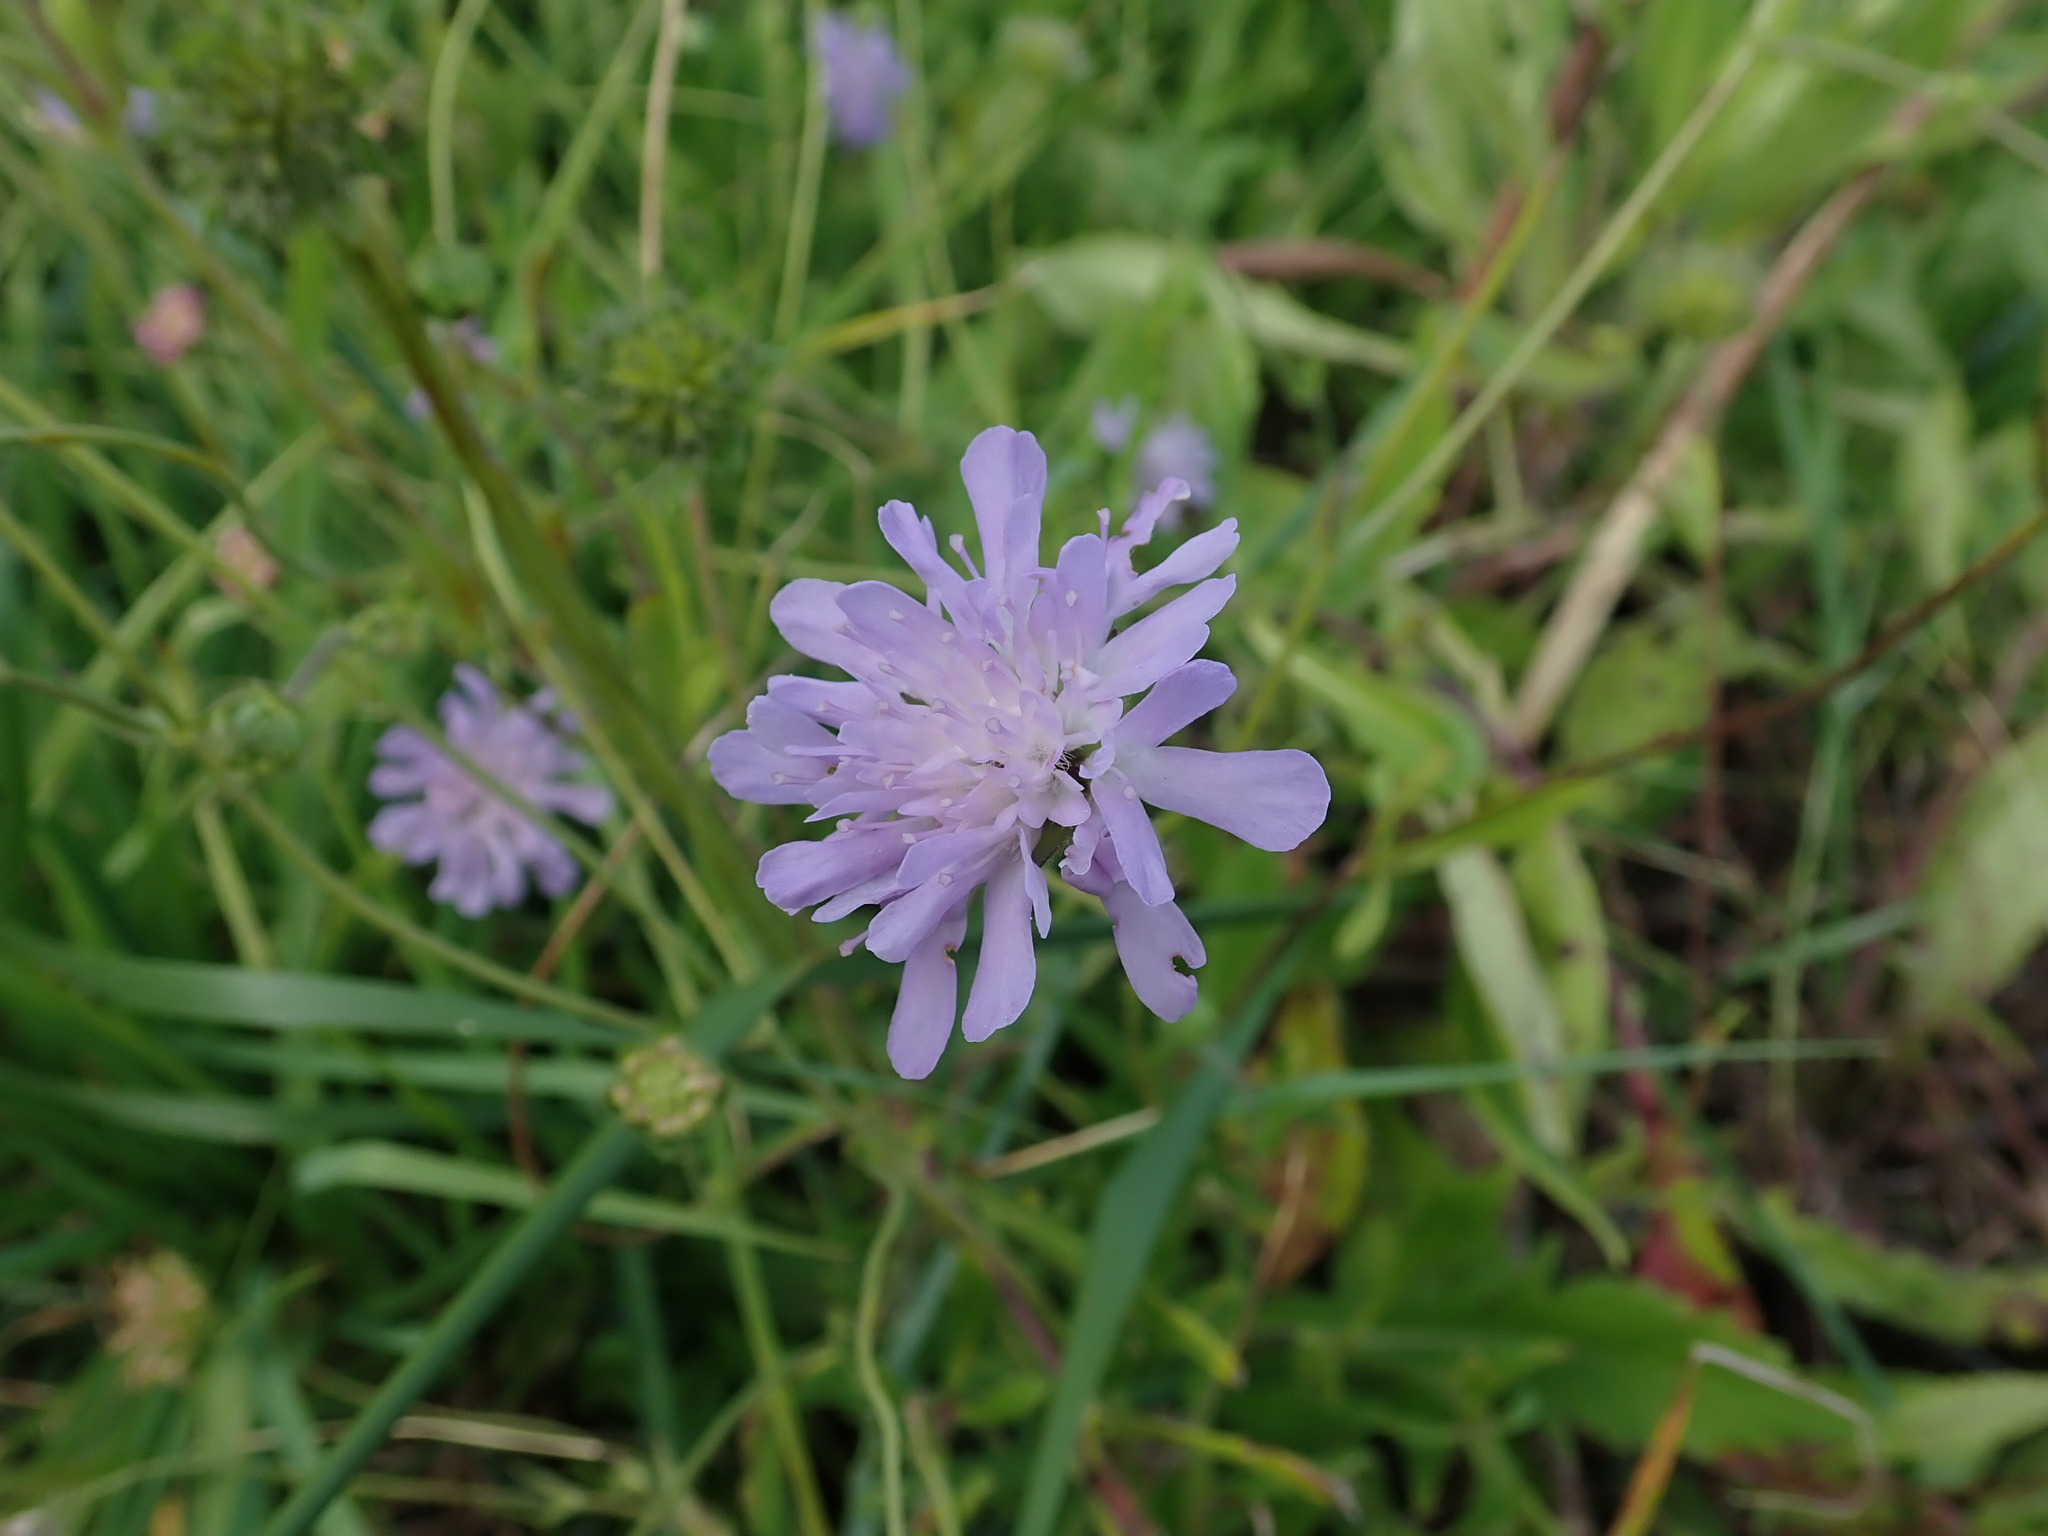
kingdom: Plantae
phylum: Tracheophyta
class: Magnoliopsida
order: Dipsacales
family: Caprifoliaceae
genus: Knautia
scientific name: Knautia arvensis
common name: Field scabiosa
